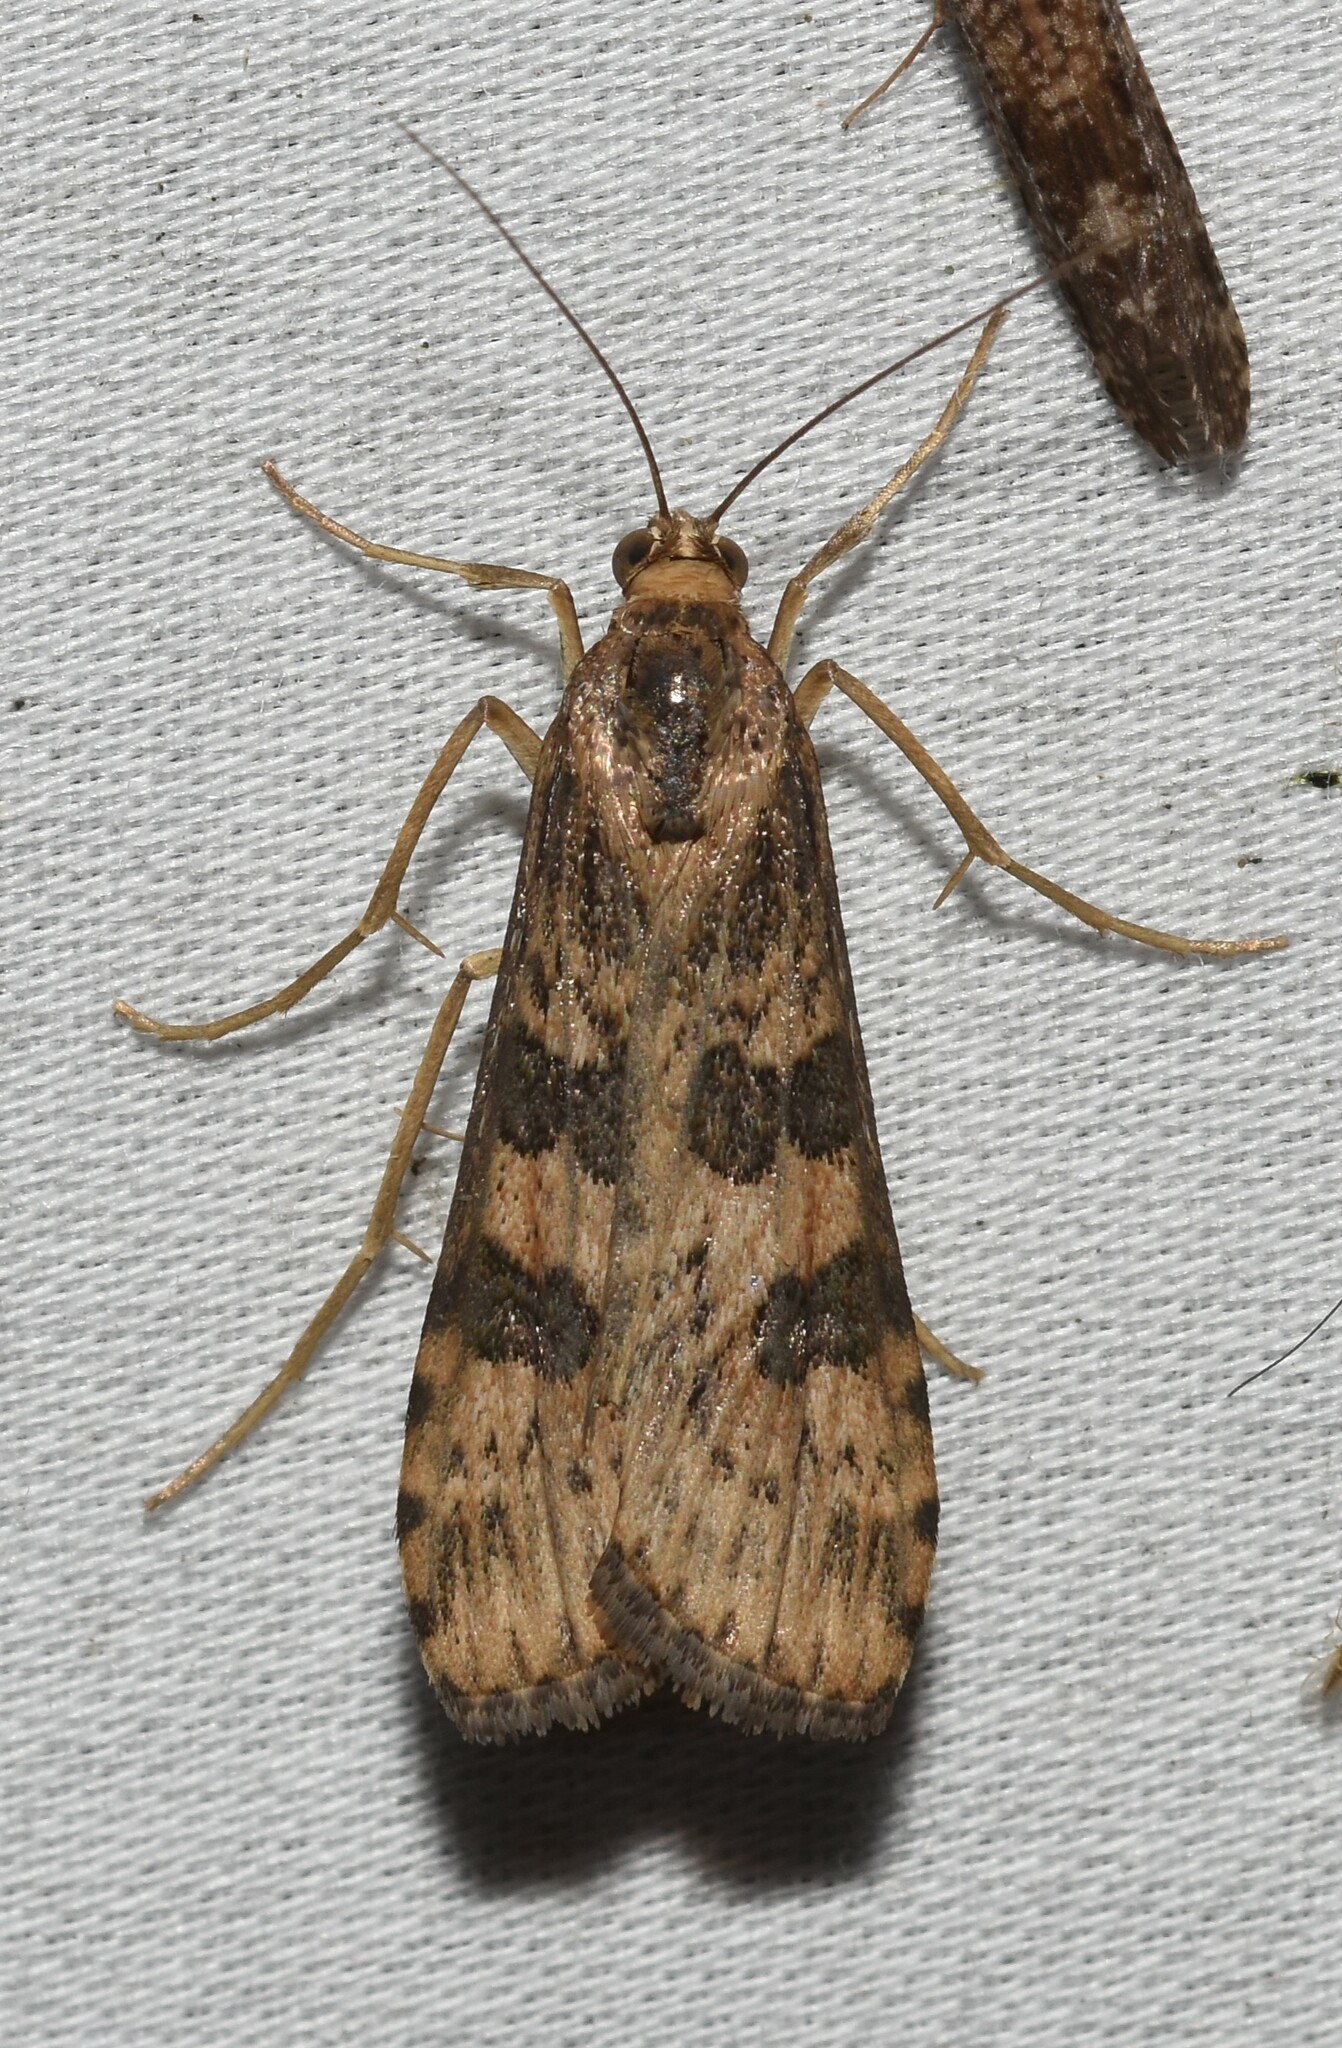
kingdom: Animalia
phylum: Arthropoda
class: Insecta
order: Lepidoptera
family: Crambidae
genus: Nomophila
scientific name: Nomophila nearctica
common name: American rush veneer
